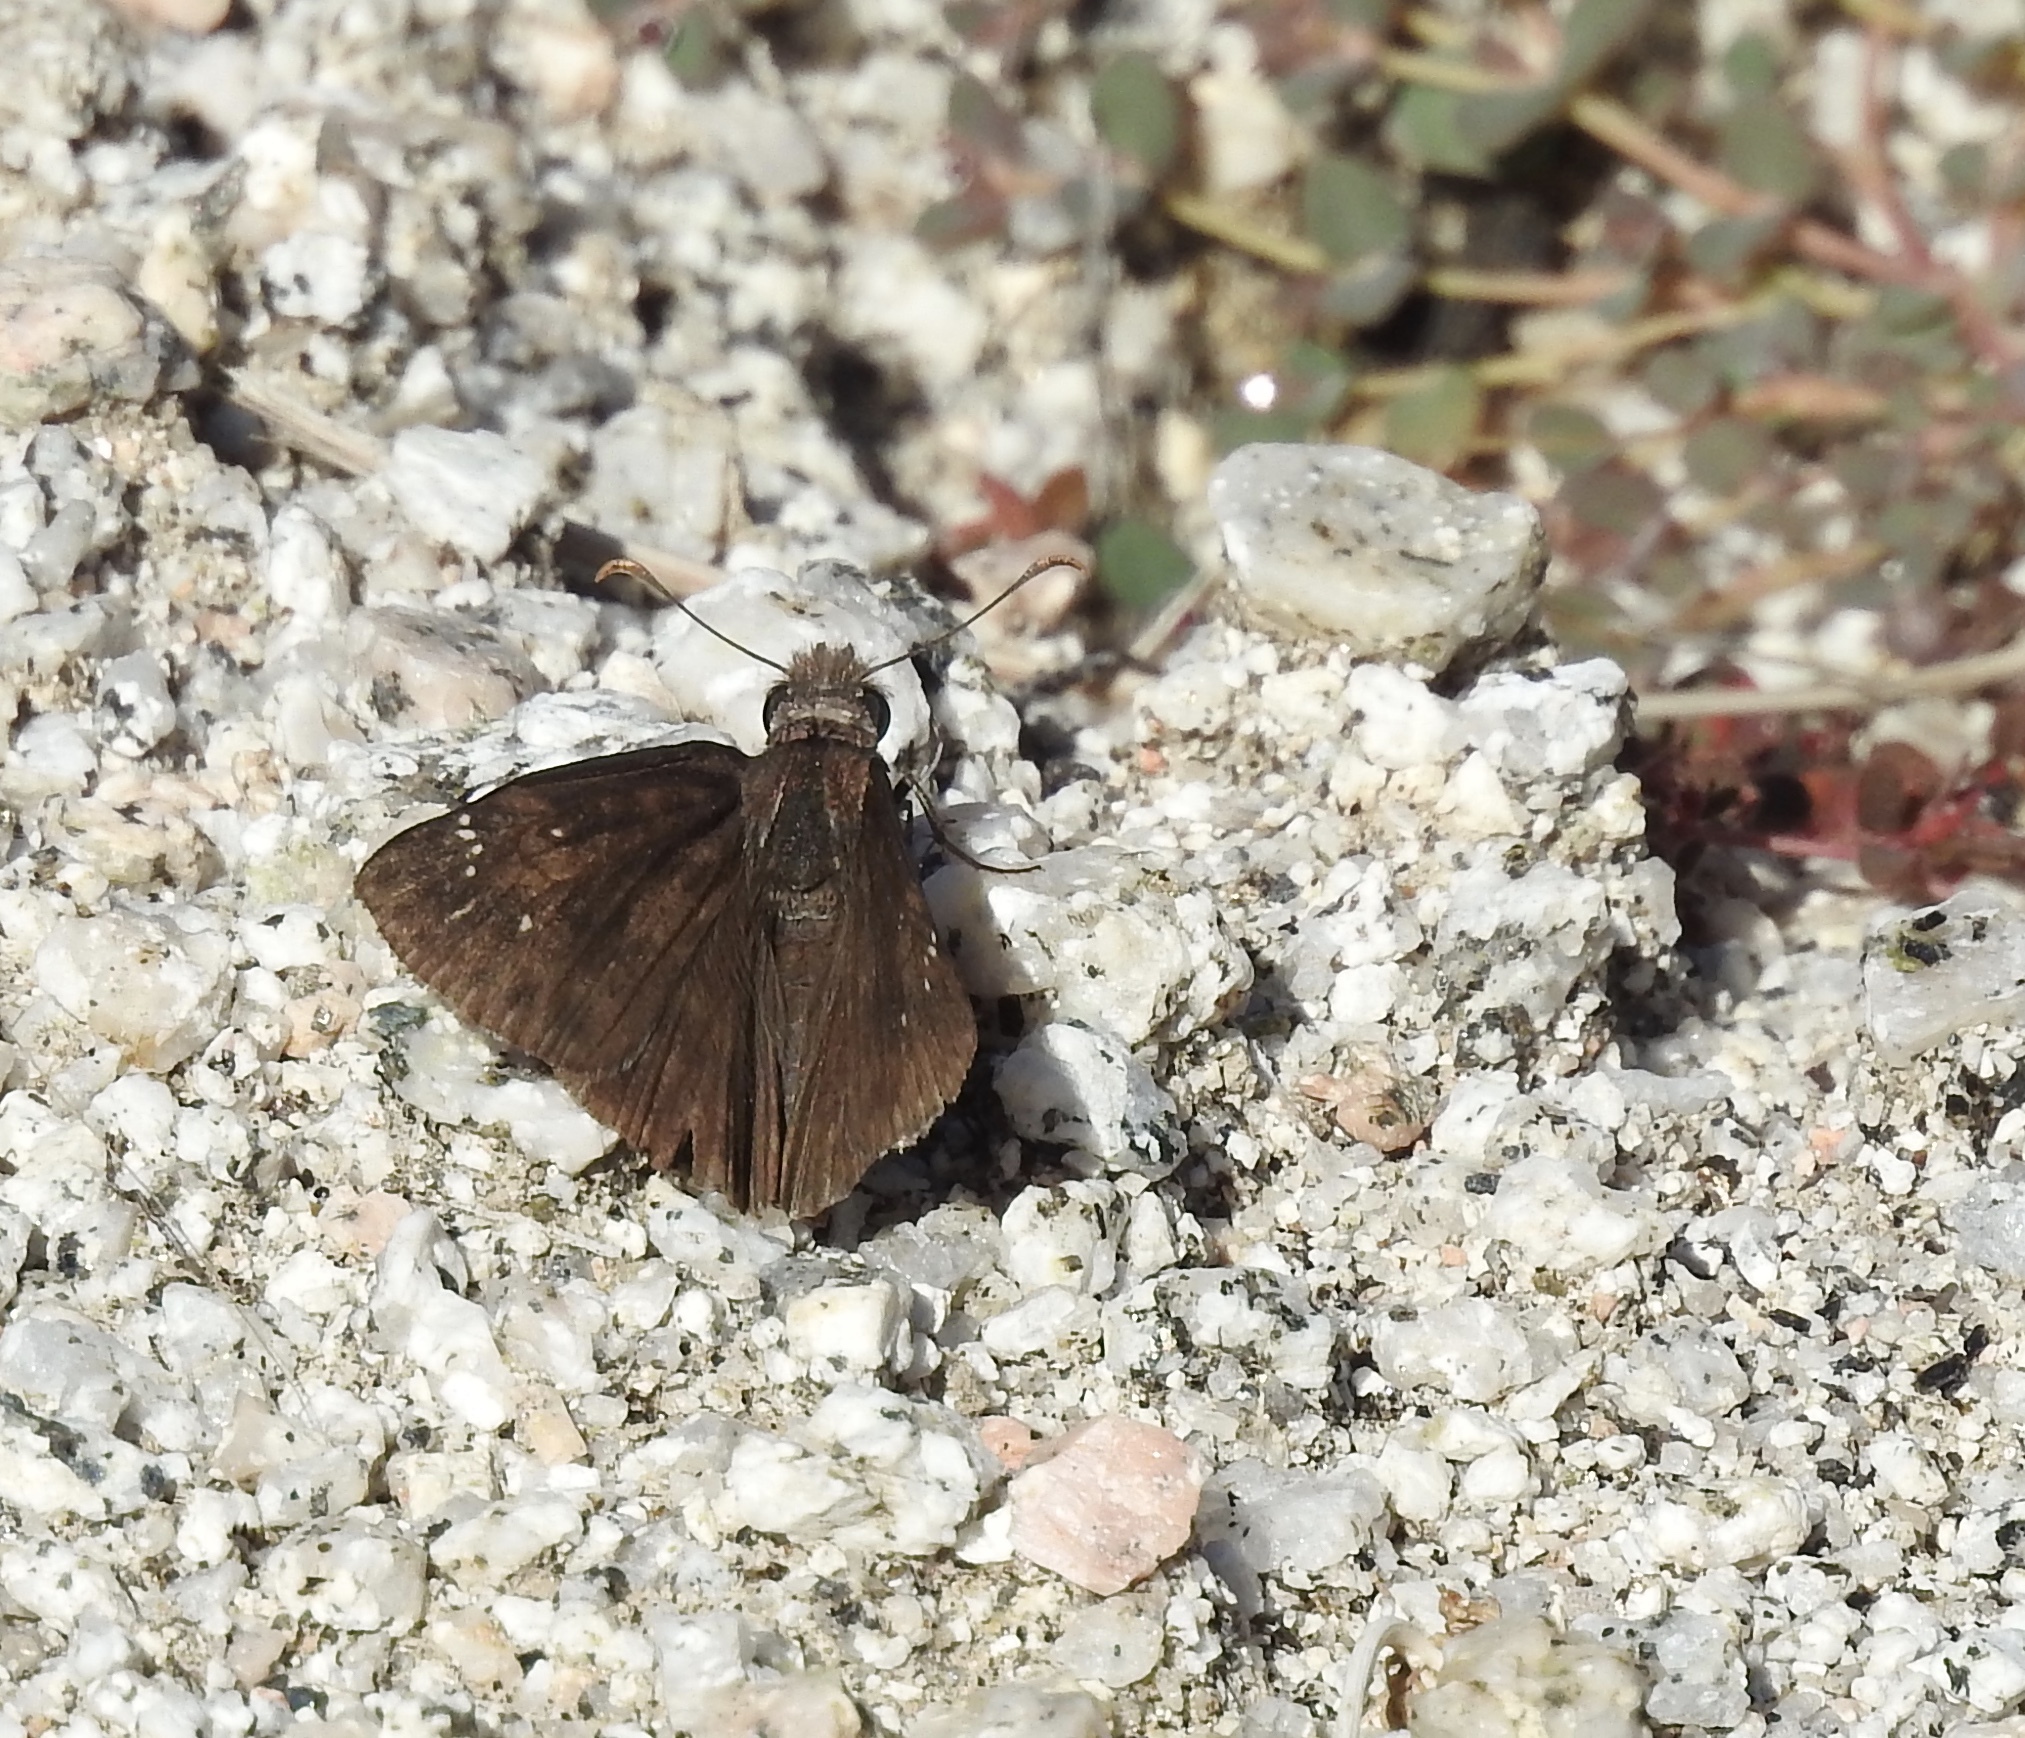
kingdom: Animalia
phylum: Arthropoda
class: Insecta
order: Lepidoptera
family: Hesperiidae
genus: Erynnis
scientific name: Erynnis tristis
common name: Mournful duskywing
